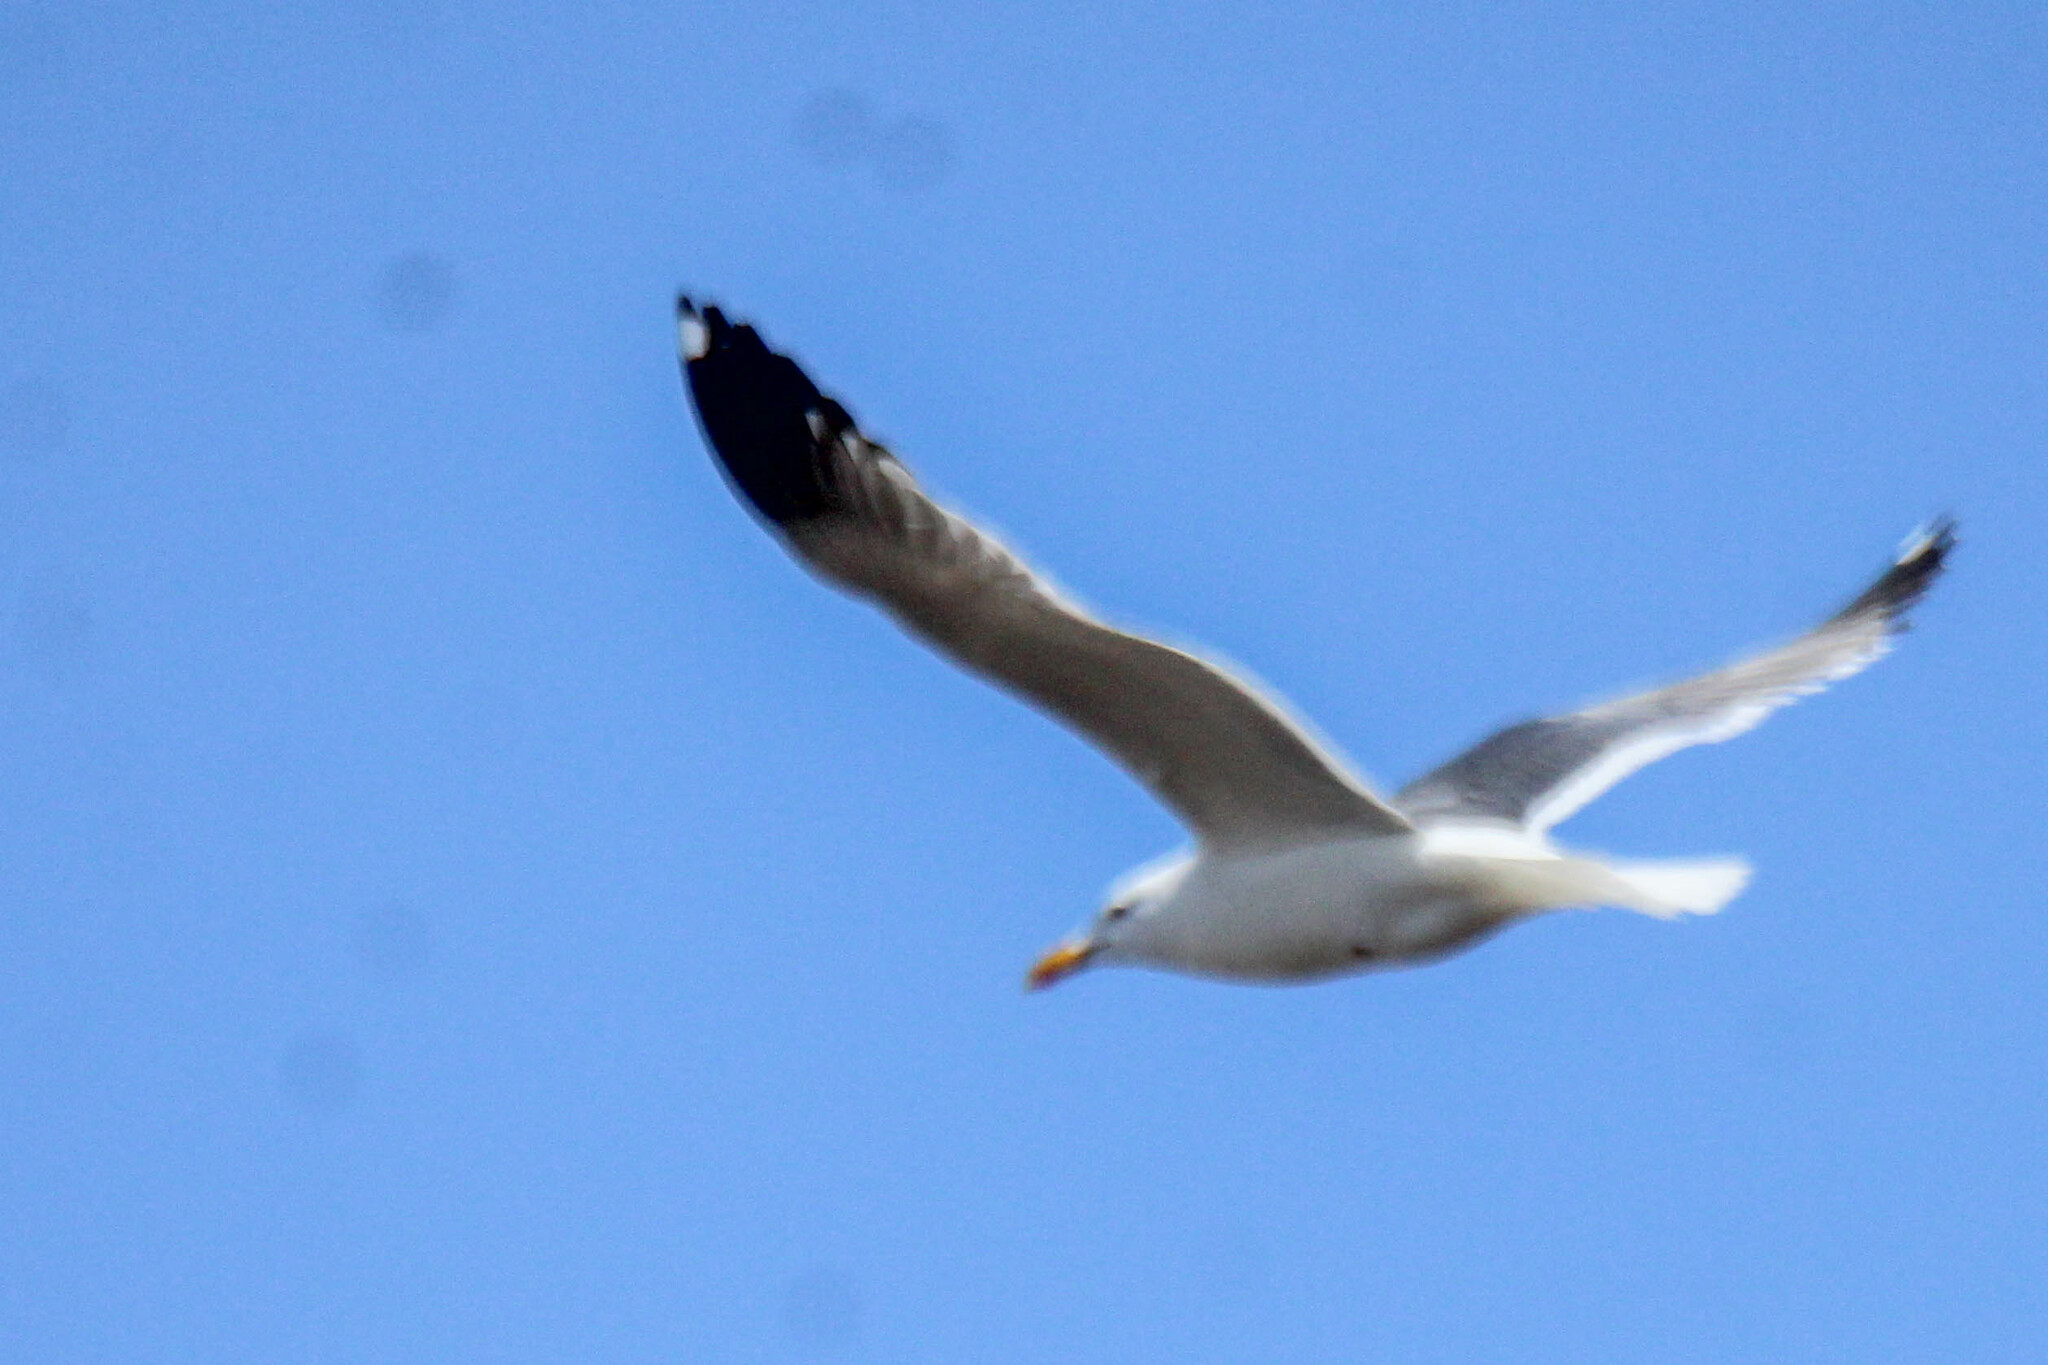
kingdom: Animalia
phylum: Chordata
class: Aves
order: Charadriiformes
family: Laridae
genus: Larus
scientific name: Larus fuscus
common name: Lesser black-backed gull
